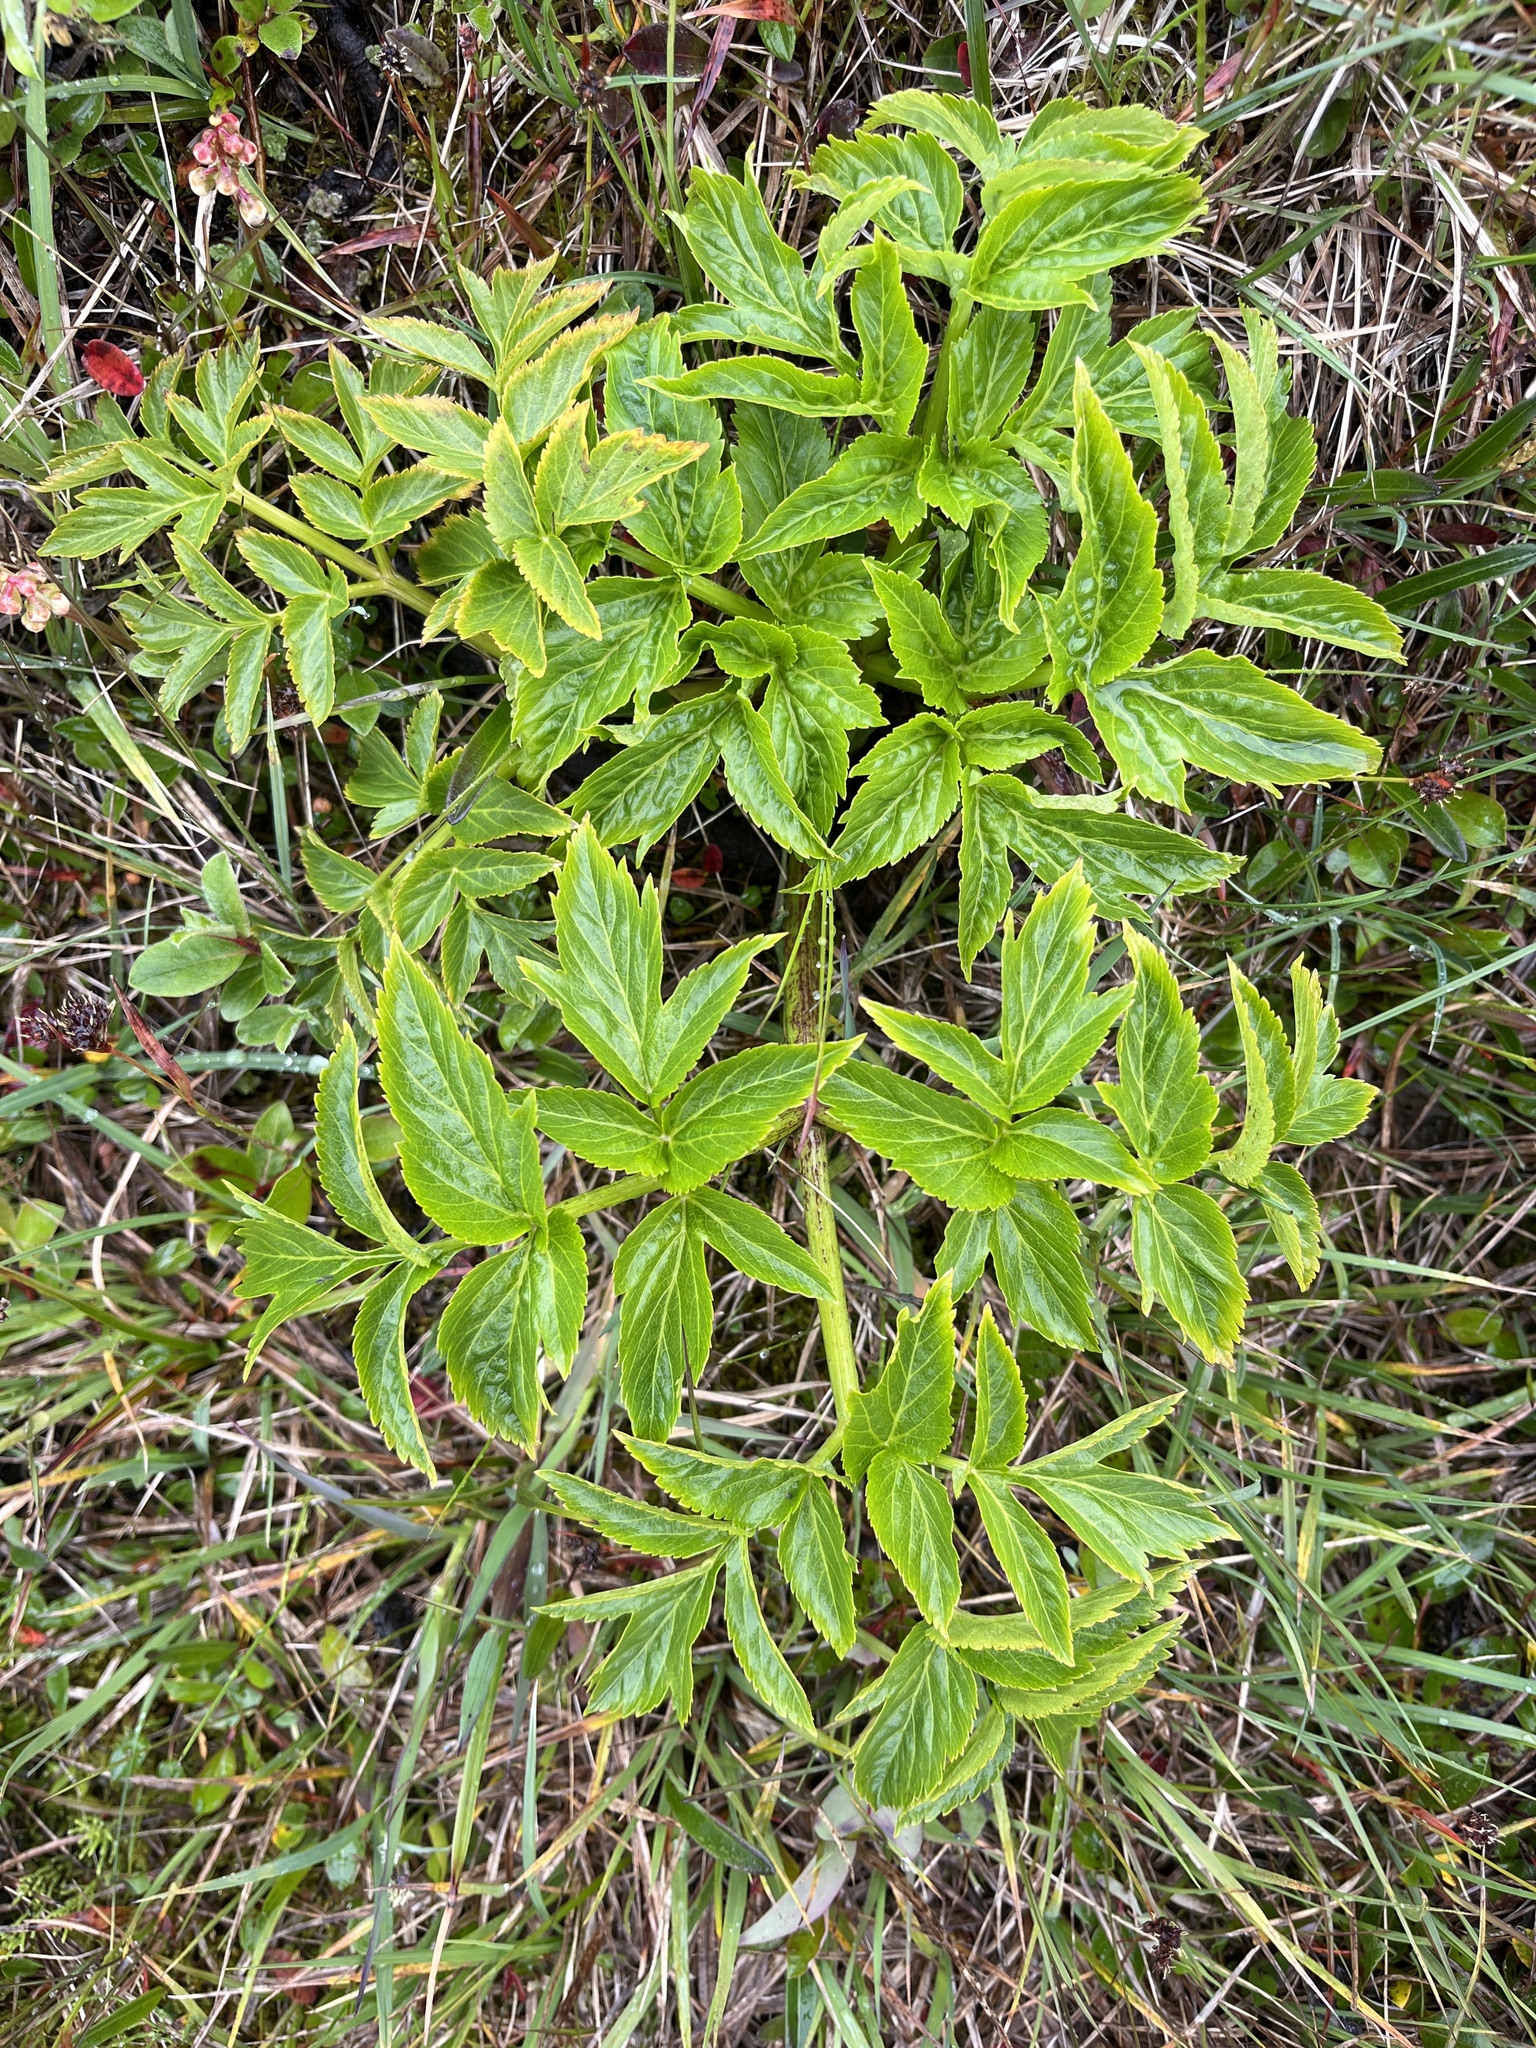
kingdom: Plantae
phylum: Tracheophyta
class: Magnoliopsida
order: Apiales
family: Apiaceae
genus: Angelica
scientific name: Angelica archangelica
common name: Garden angelica
